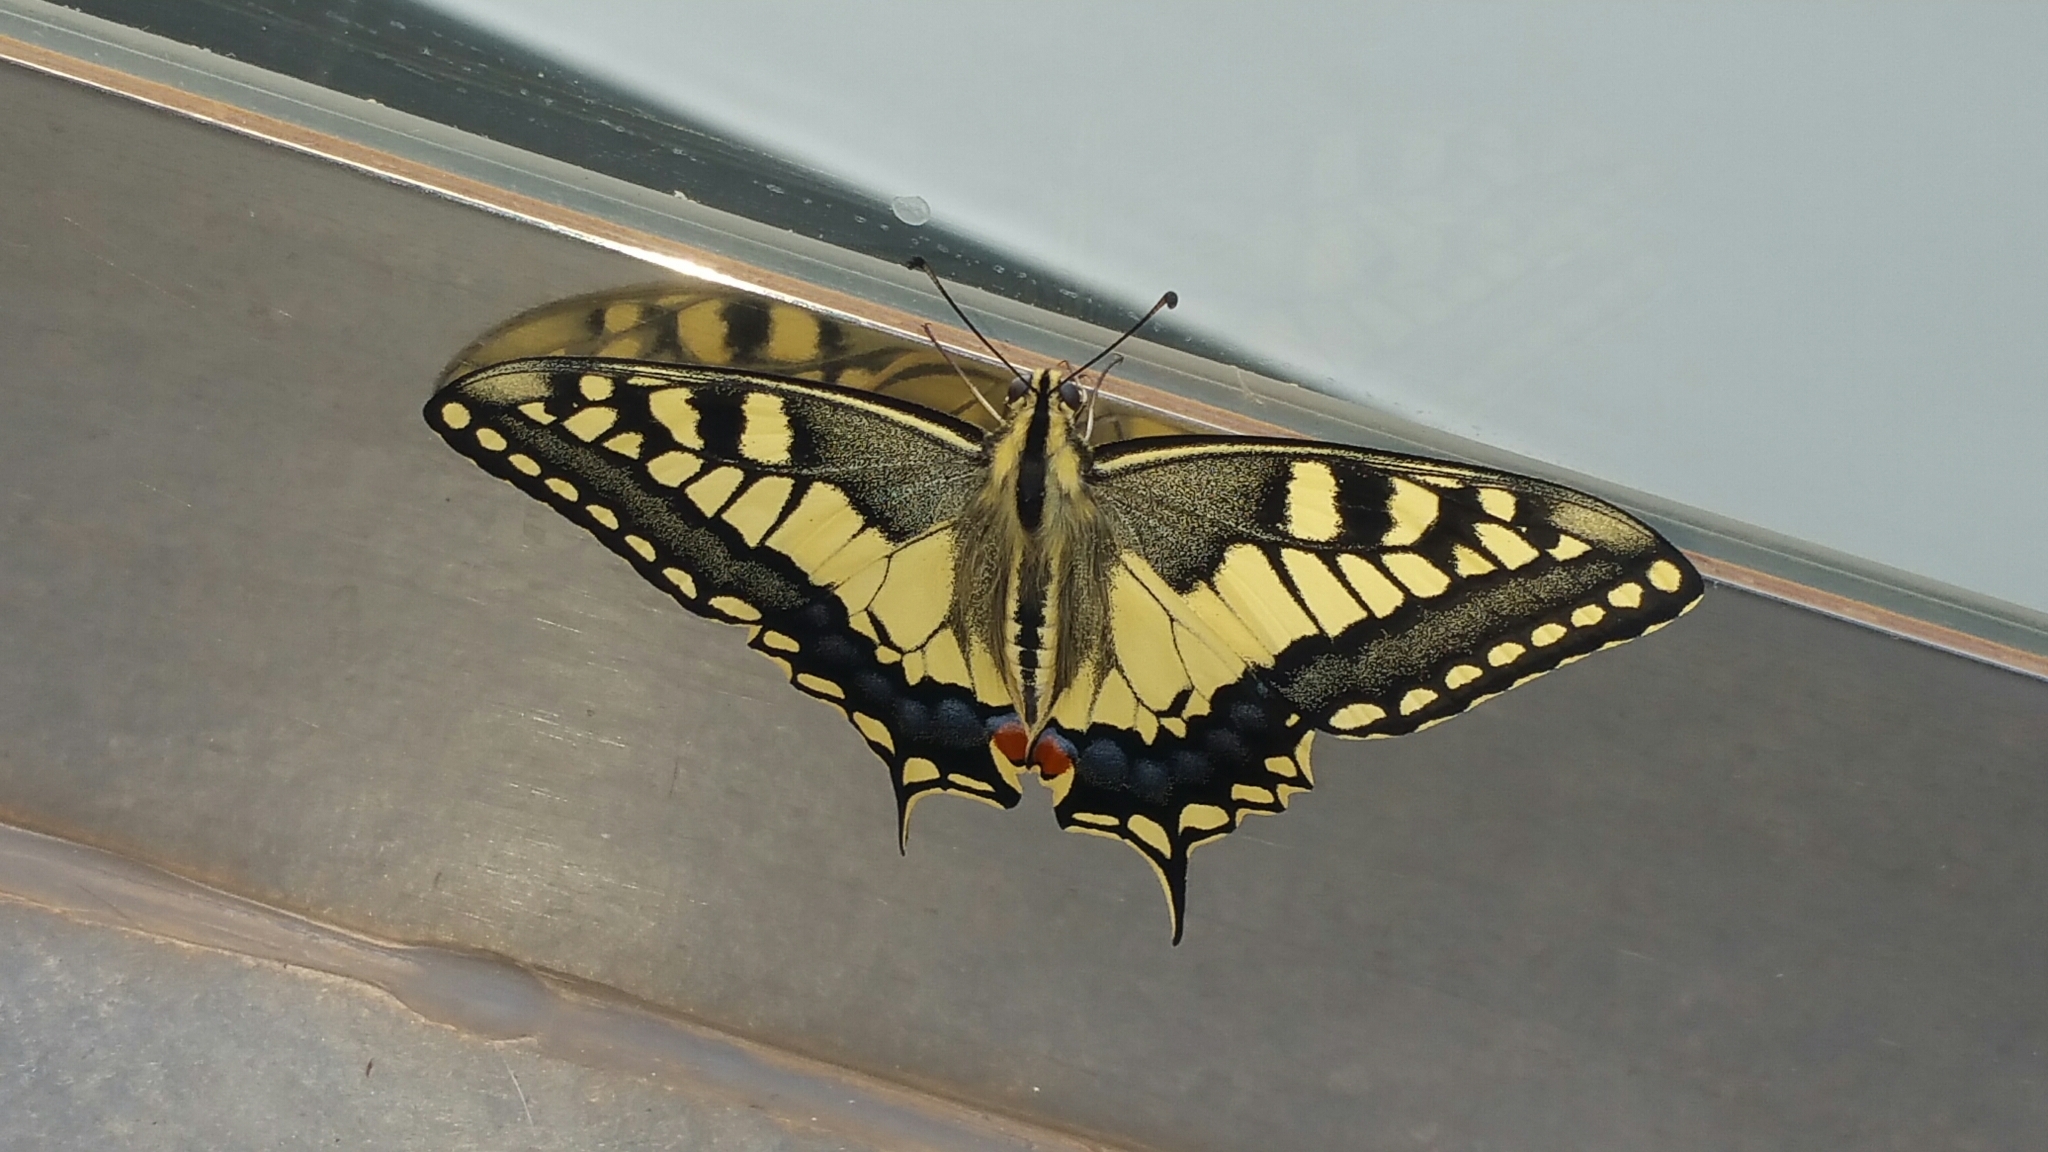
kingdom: Animalia
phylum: Arthropoda
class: Insecta
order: Lepidoptera
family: Papilionidae
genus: Papilio
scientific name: Papilio machaon
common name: Swallowtail
